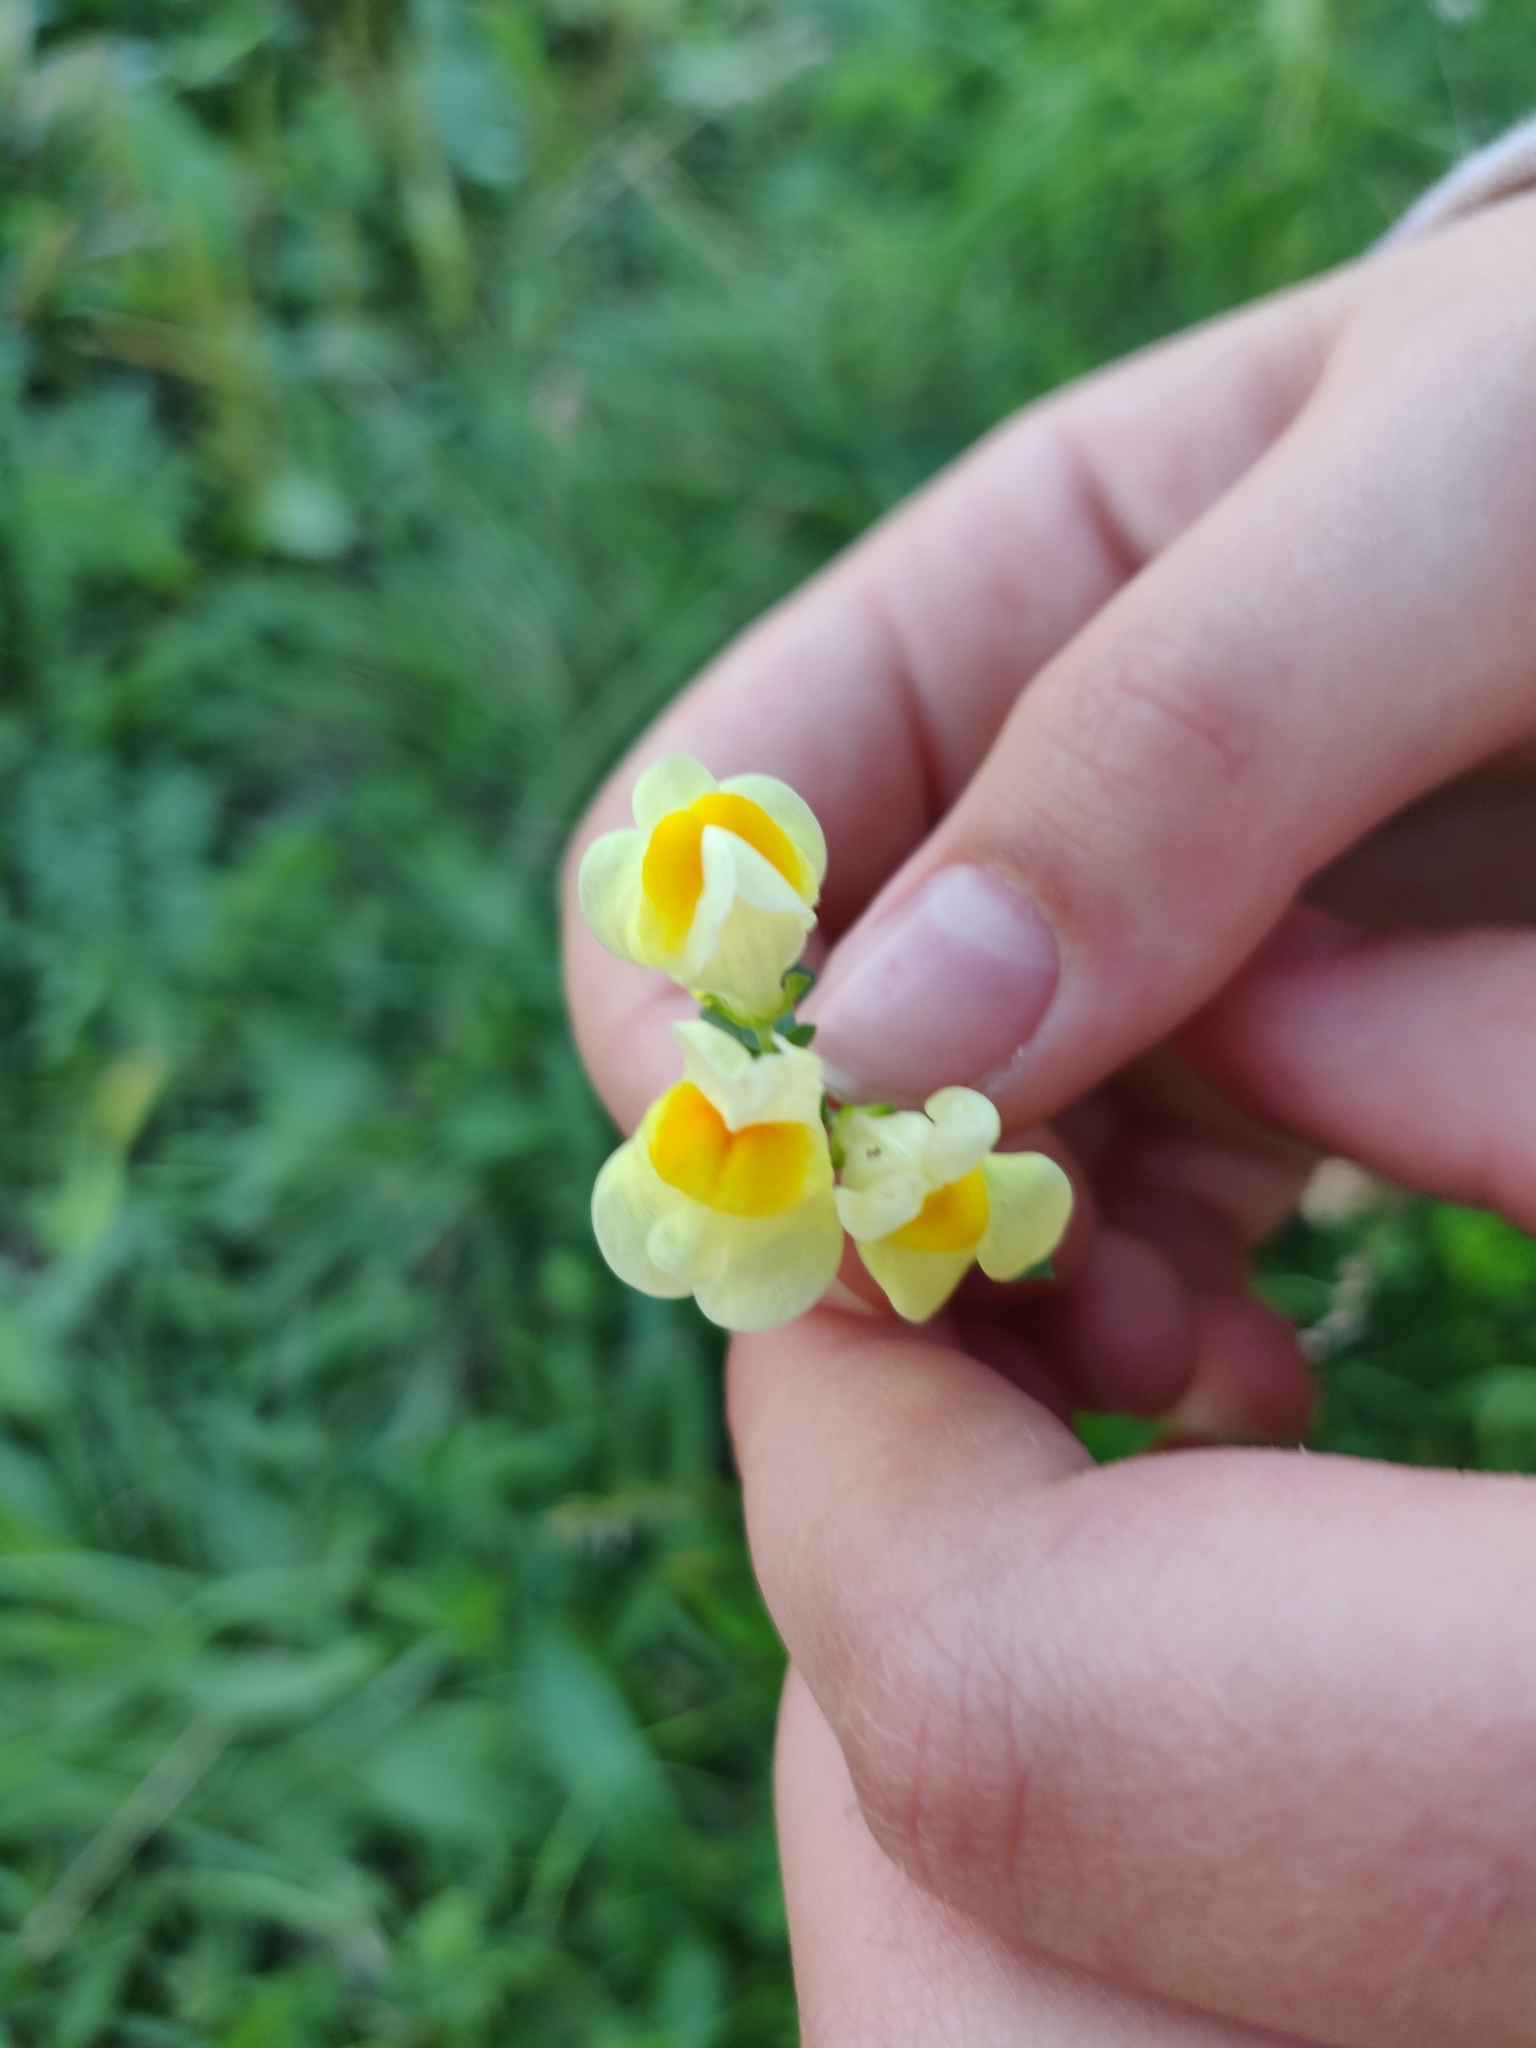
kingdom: Plantae
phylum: Tracheophyta
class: Magnoliopsida
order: Lamiales
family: Plantaginaceae
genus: Linaria
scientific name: Linaria vulgaris
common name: Butter and eggs
